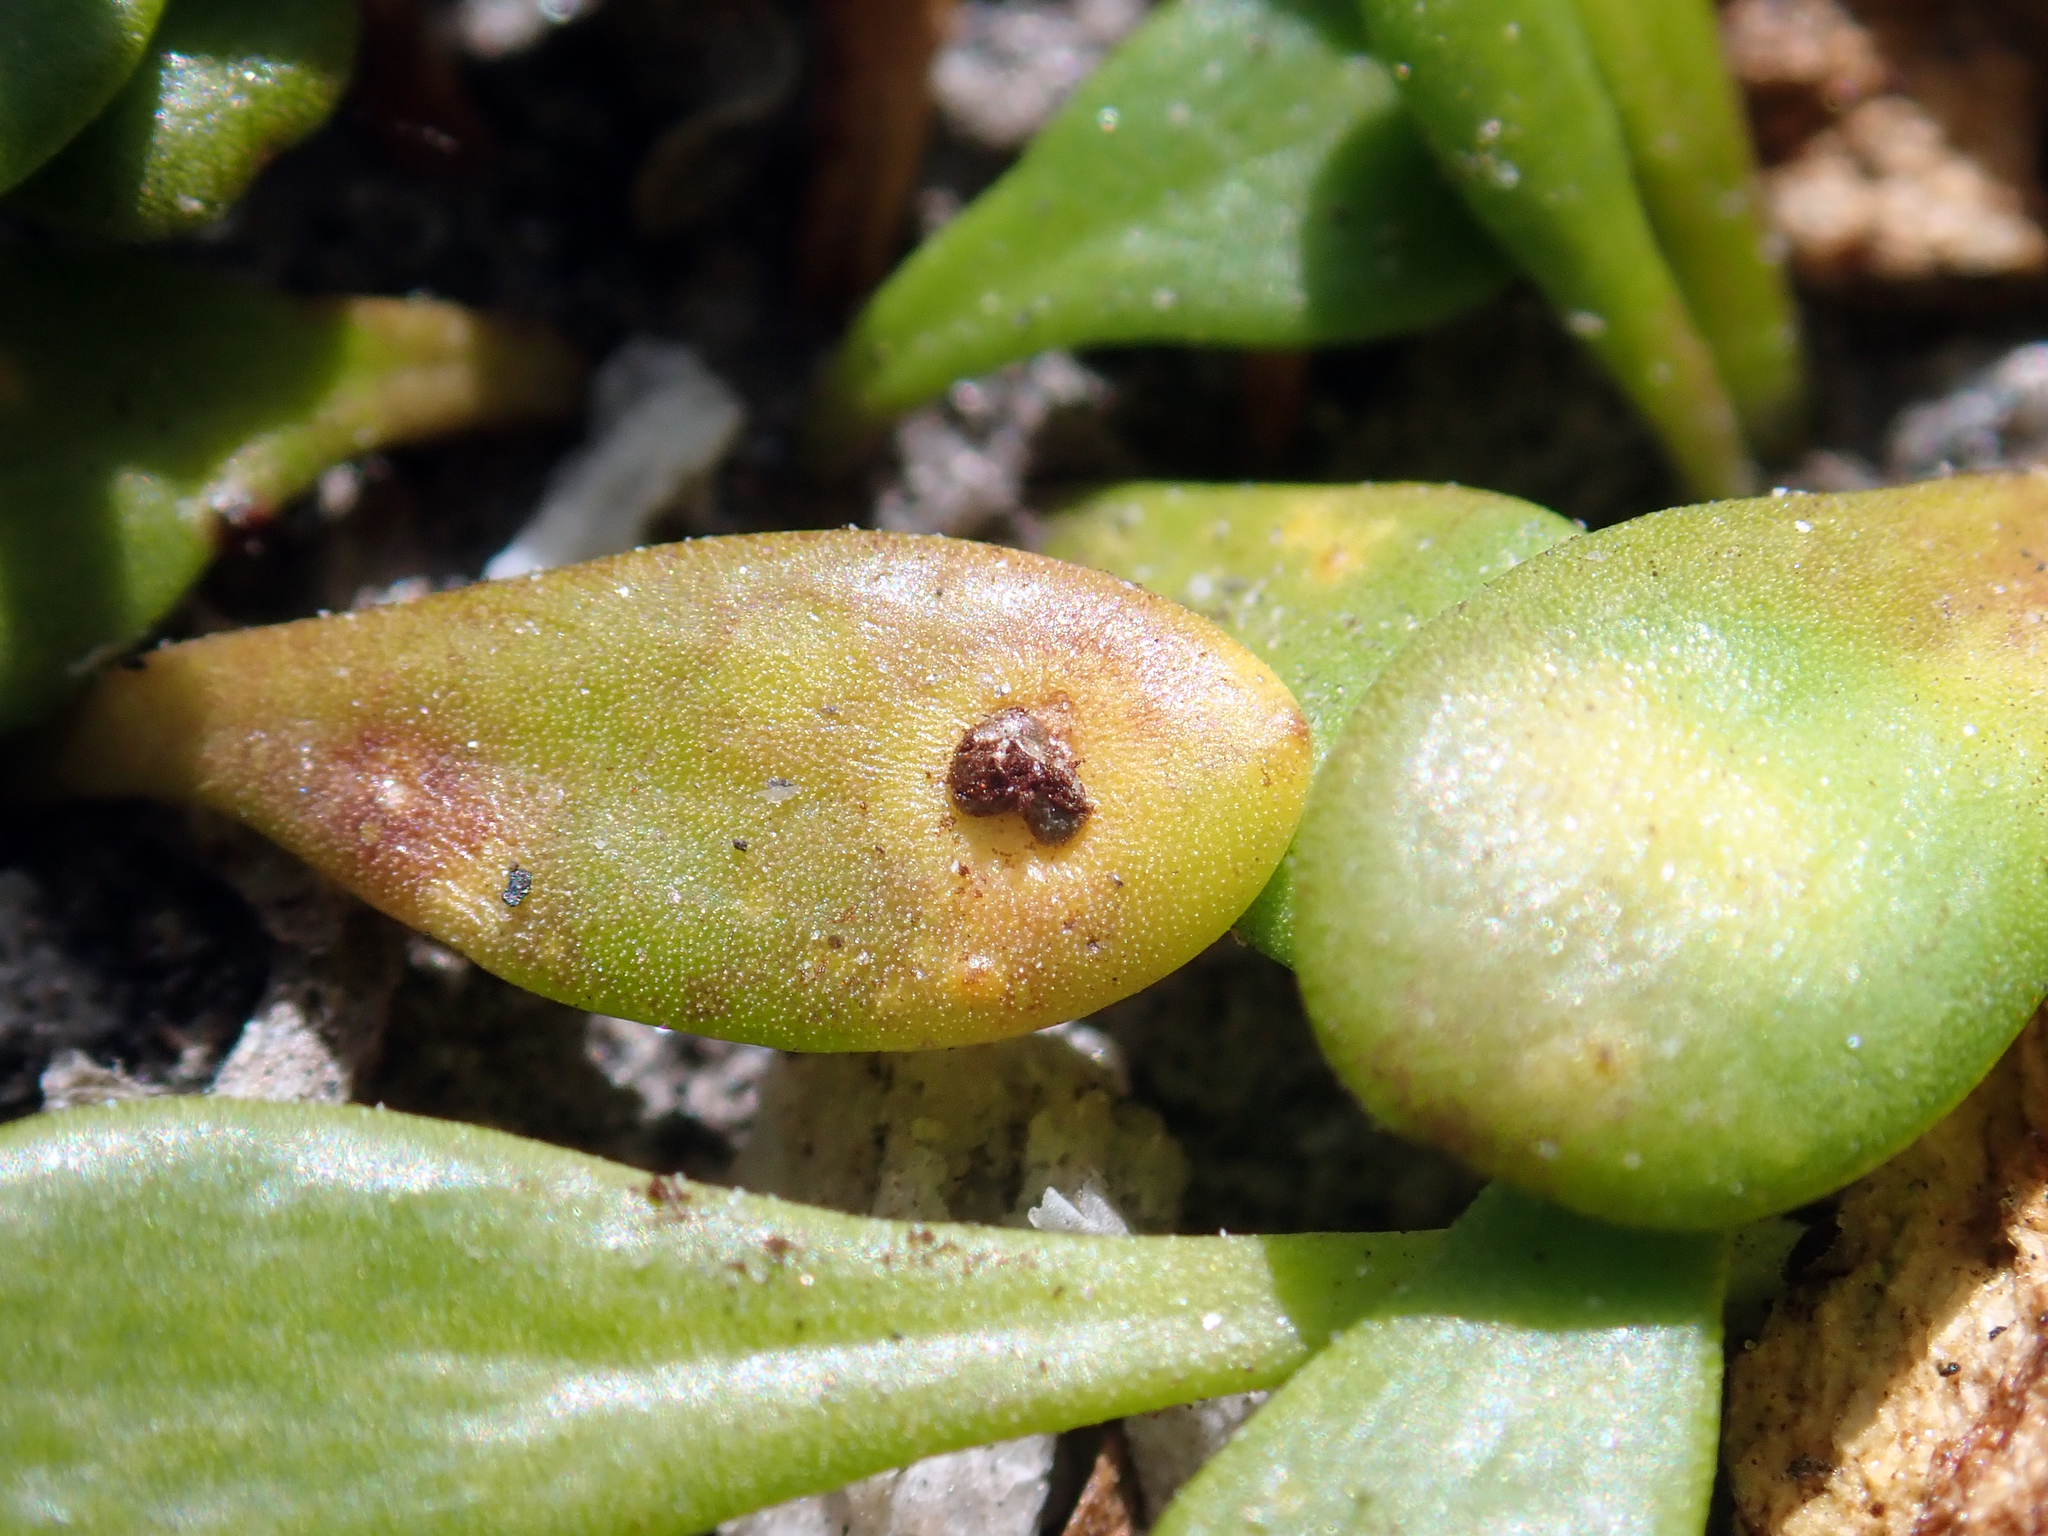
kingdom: Fungi
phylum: Basidiomycota
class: Pucciniomycetes
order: Pucciniales
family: Pucciniaceae
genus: Uromyces
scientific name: Uromyces scaevolae
